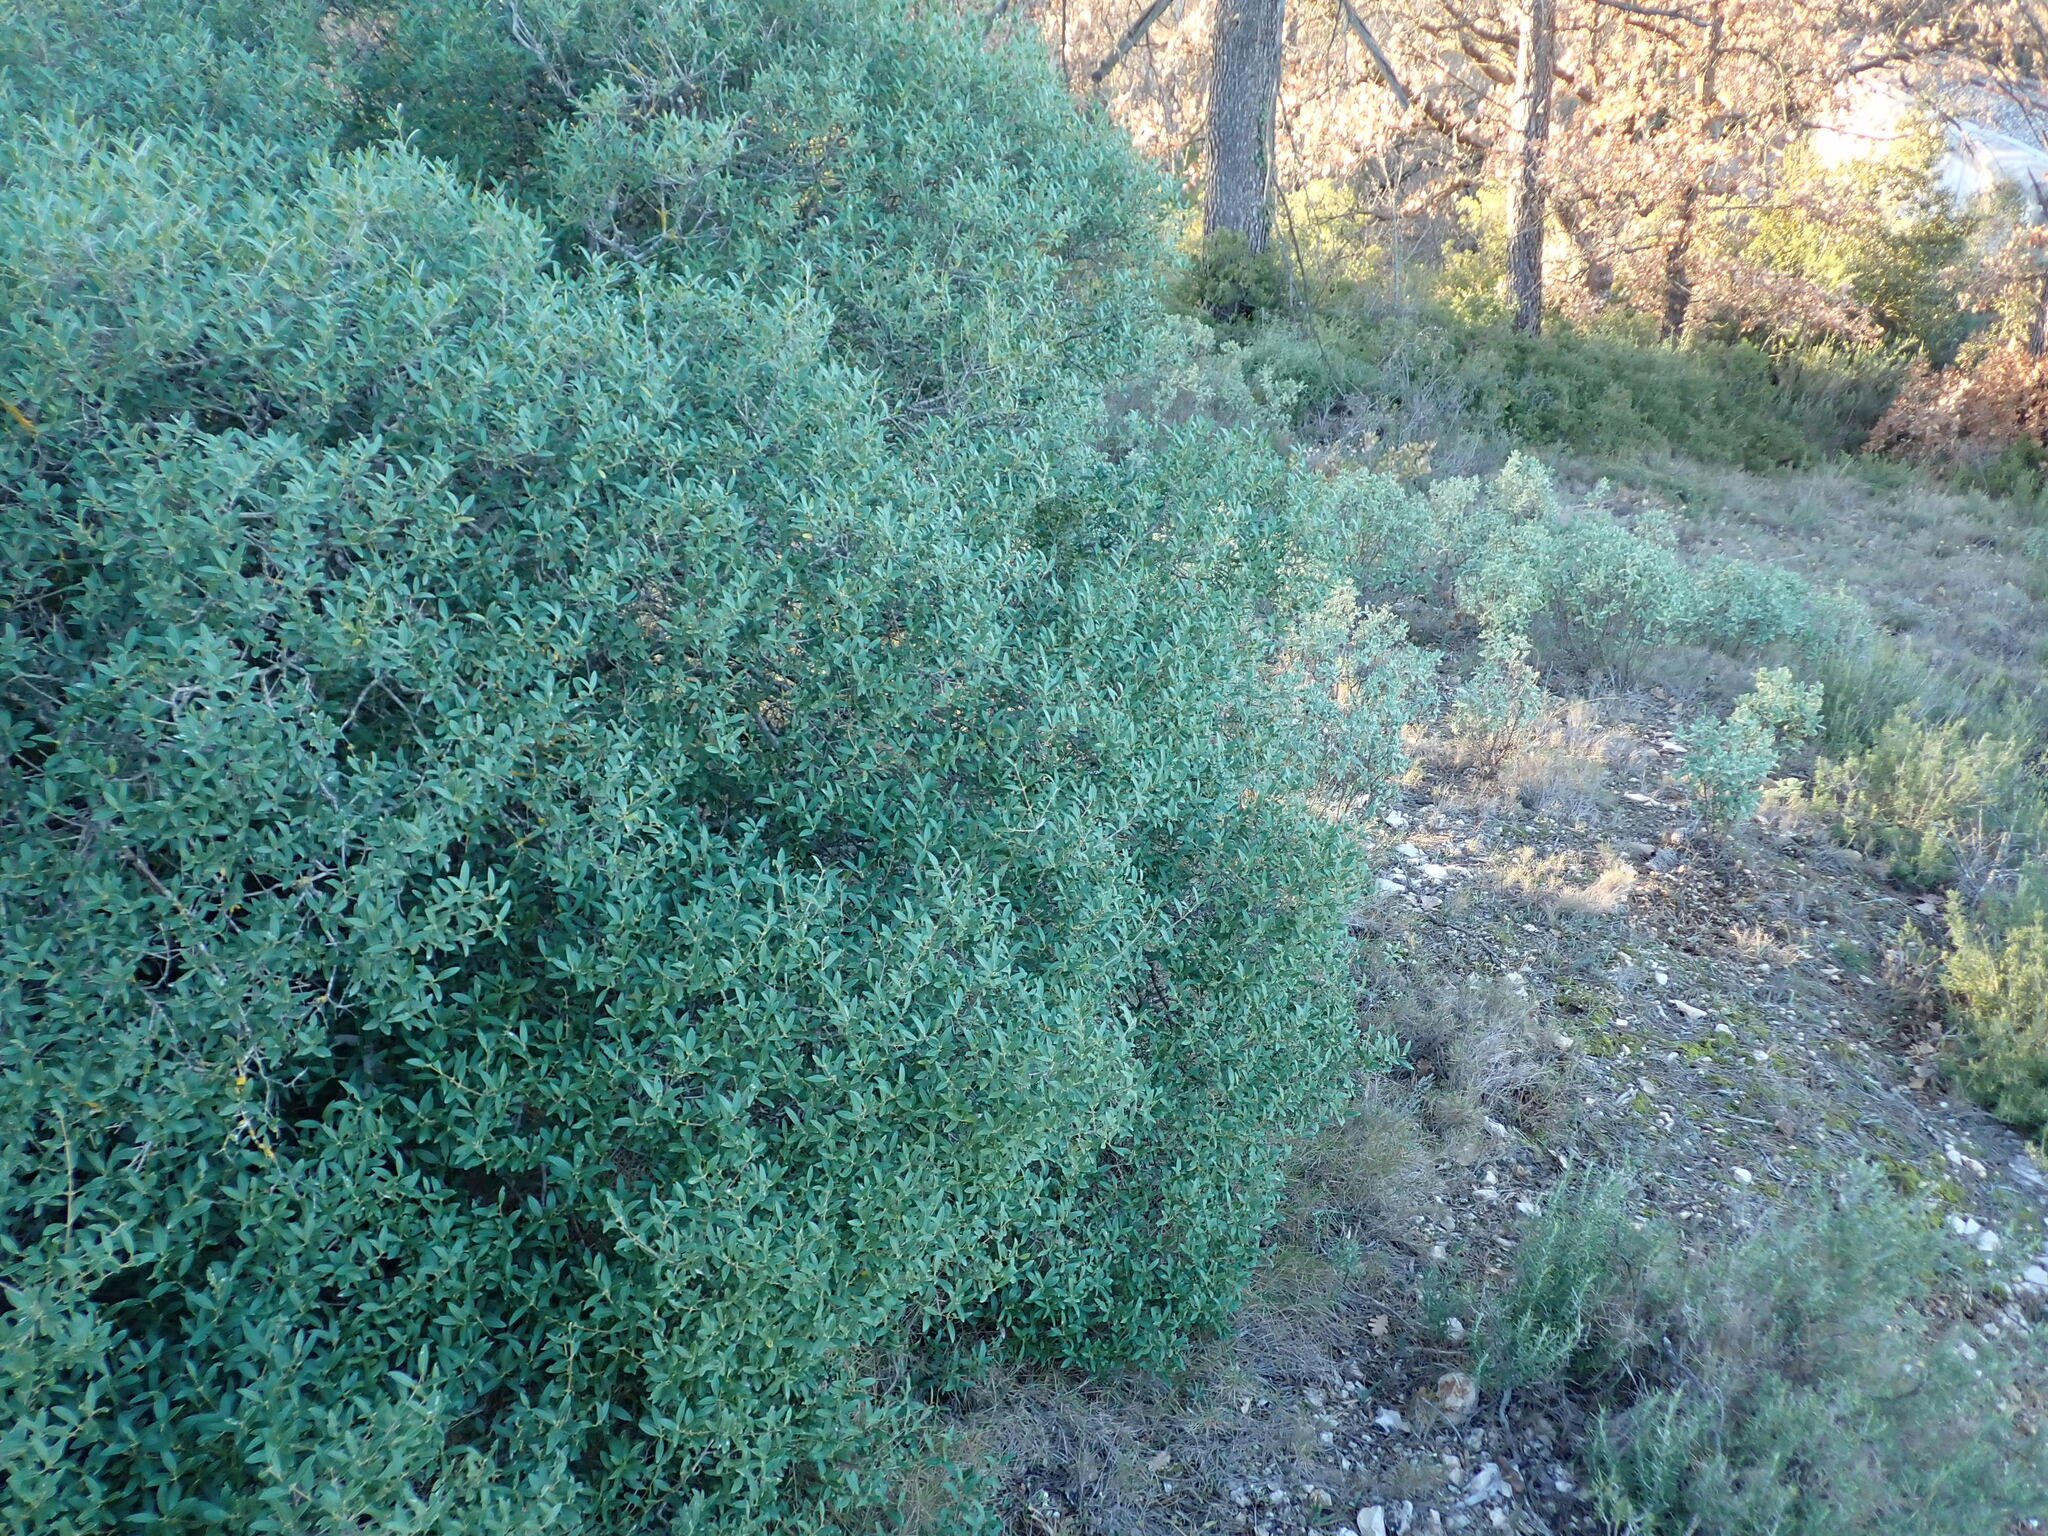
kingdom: Plantae
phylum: Tracheophyta
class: Magnoliopsida
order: Lamiales
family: Oleaceae
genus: Phillyrea
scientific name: Phillyrea angustifolia
